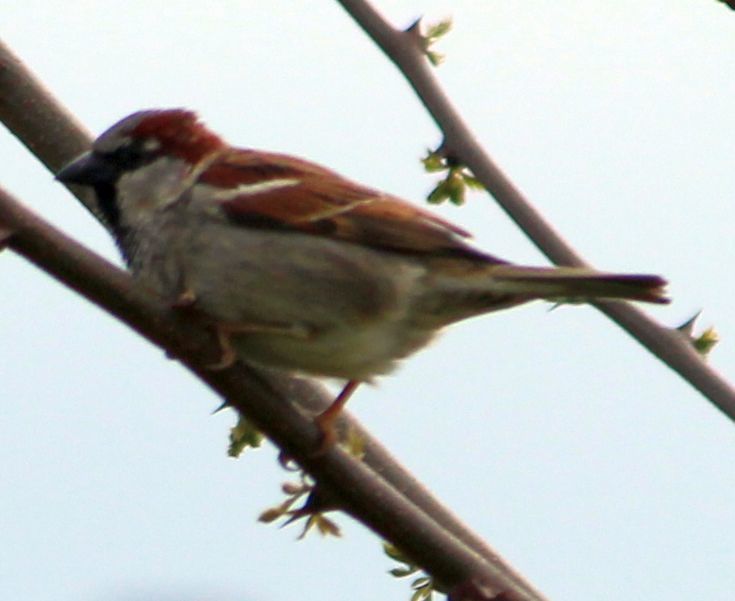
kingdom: Animalia
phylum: Chordata
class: Aves
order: Passeriformes
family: Passeridae
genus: Passer
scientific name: Passer domesticus
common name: House sparrow
